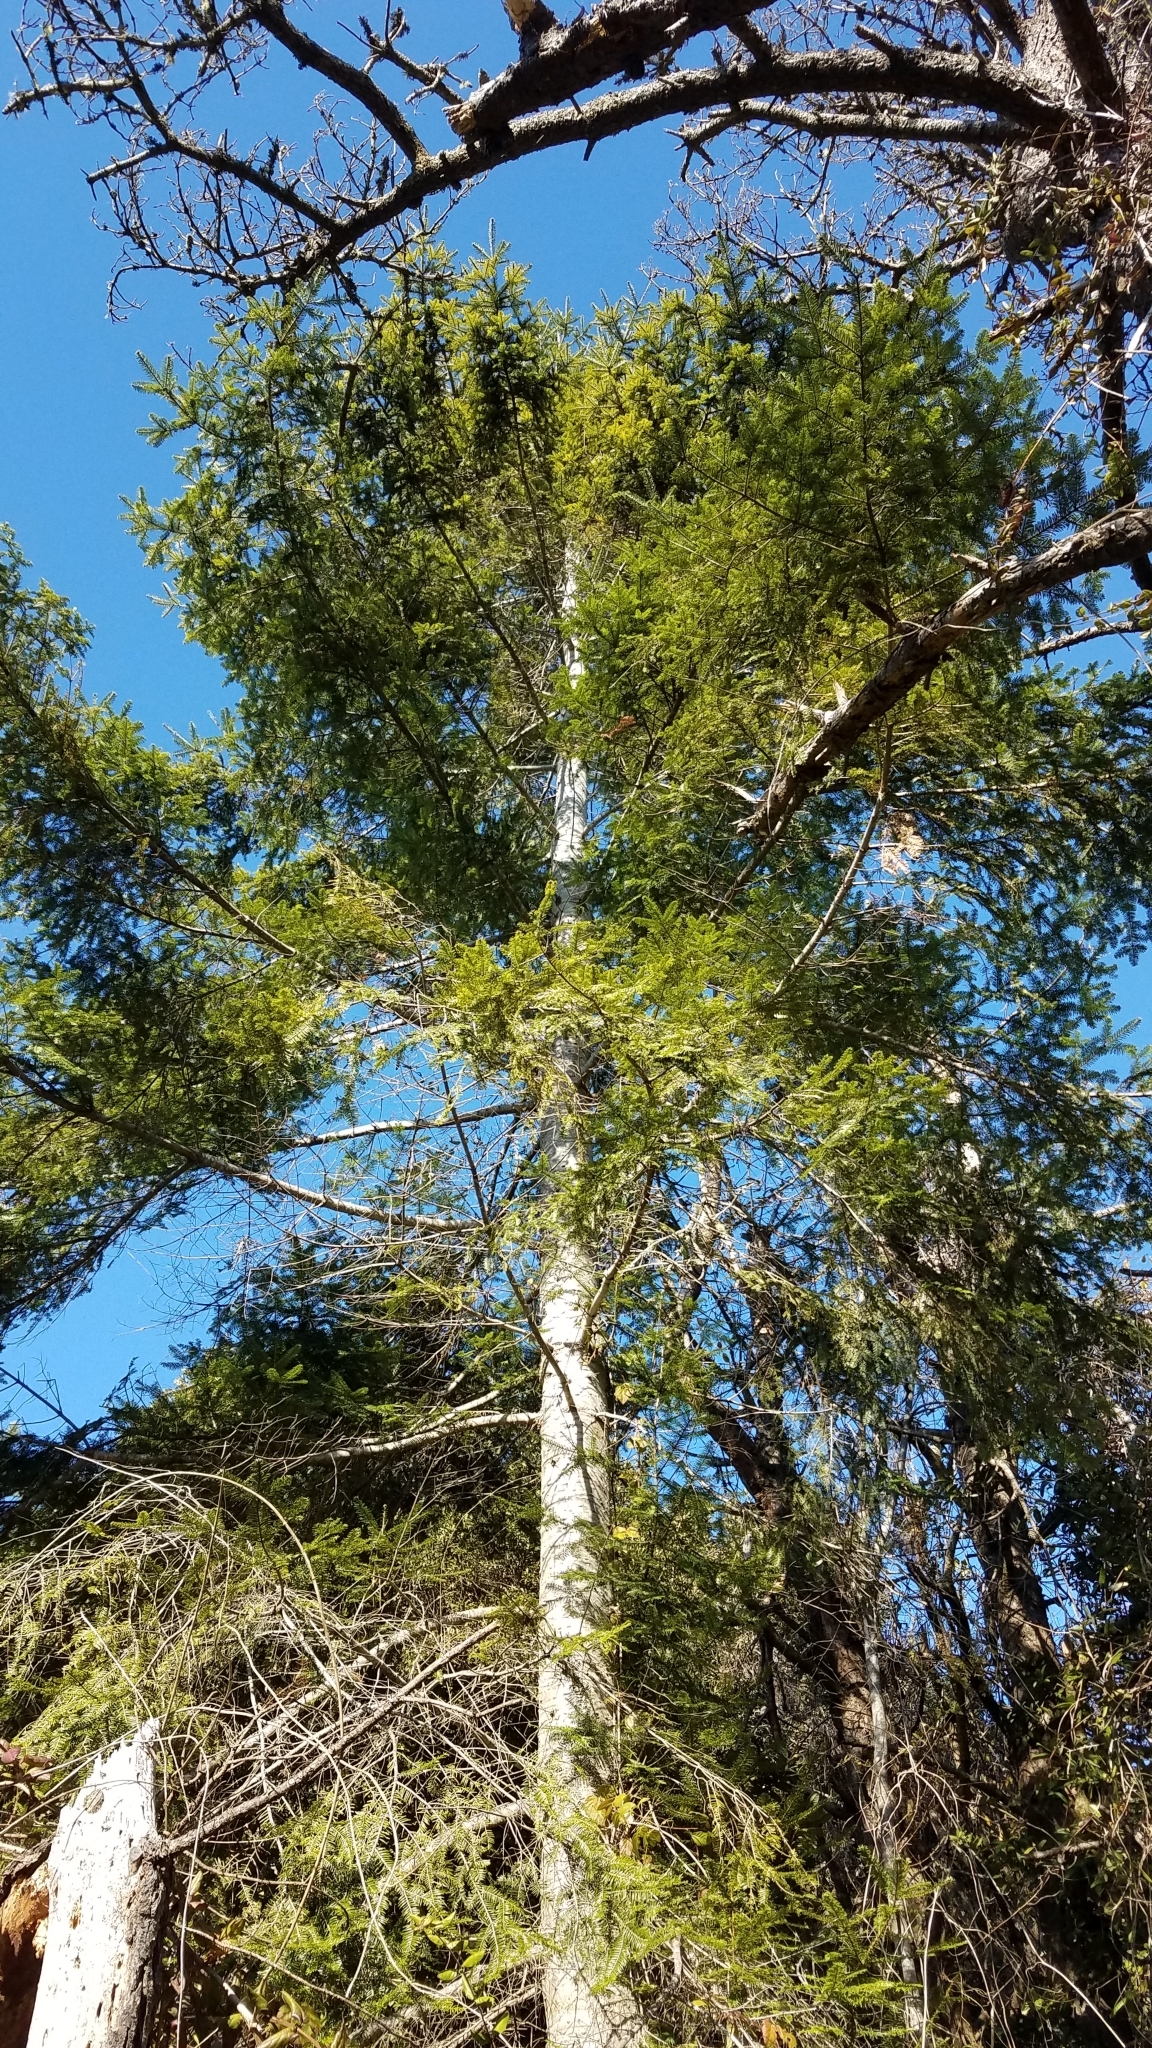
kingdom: Plantae
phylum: Tracheophyta
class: Pinopsida
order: Pinales
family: Pinaceae
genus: Abies
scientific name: Abies grandis
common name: Giant fir
